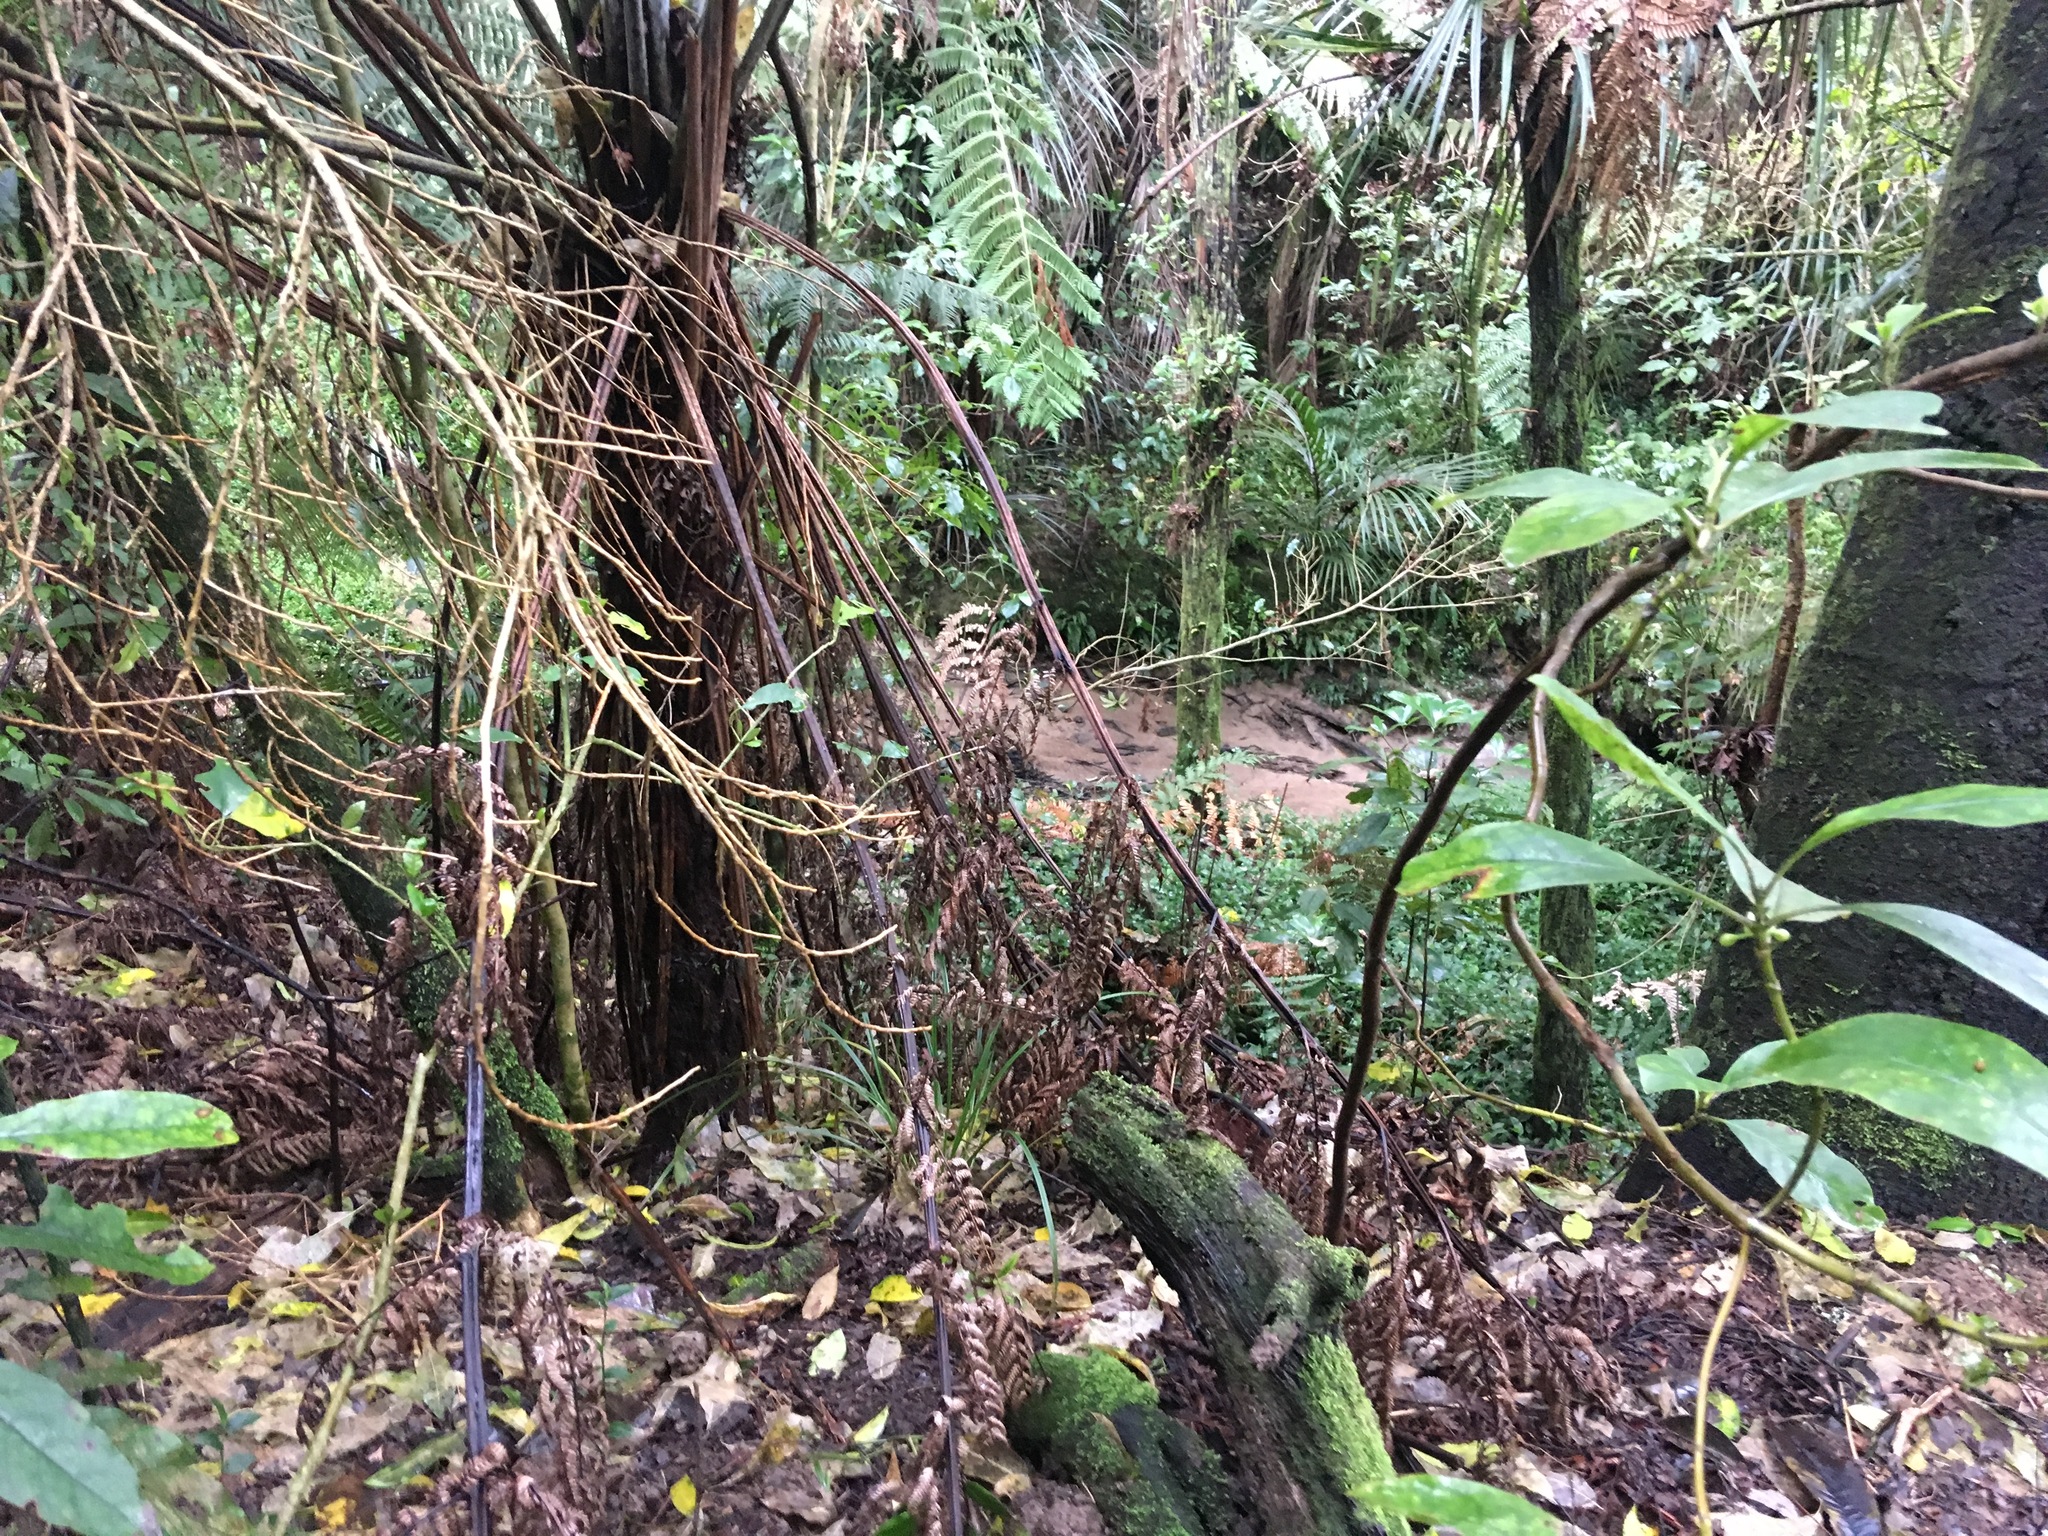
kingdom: Plantae
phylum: Tracheophyta
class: Liliopsida
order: Commelinales
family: Commelinaceae
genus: Tradescantia
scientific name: Tradescantia fluminensis
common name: Wandering-jew
